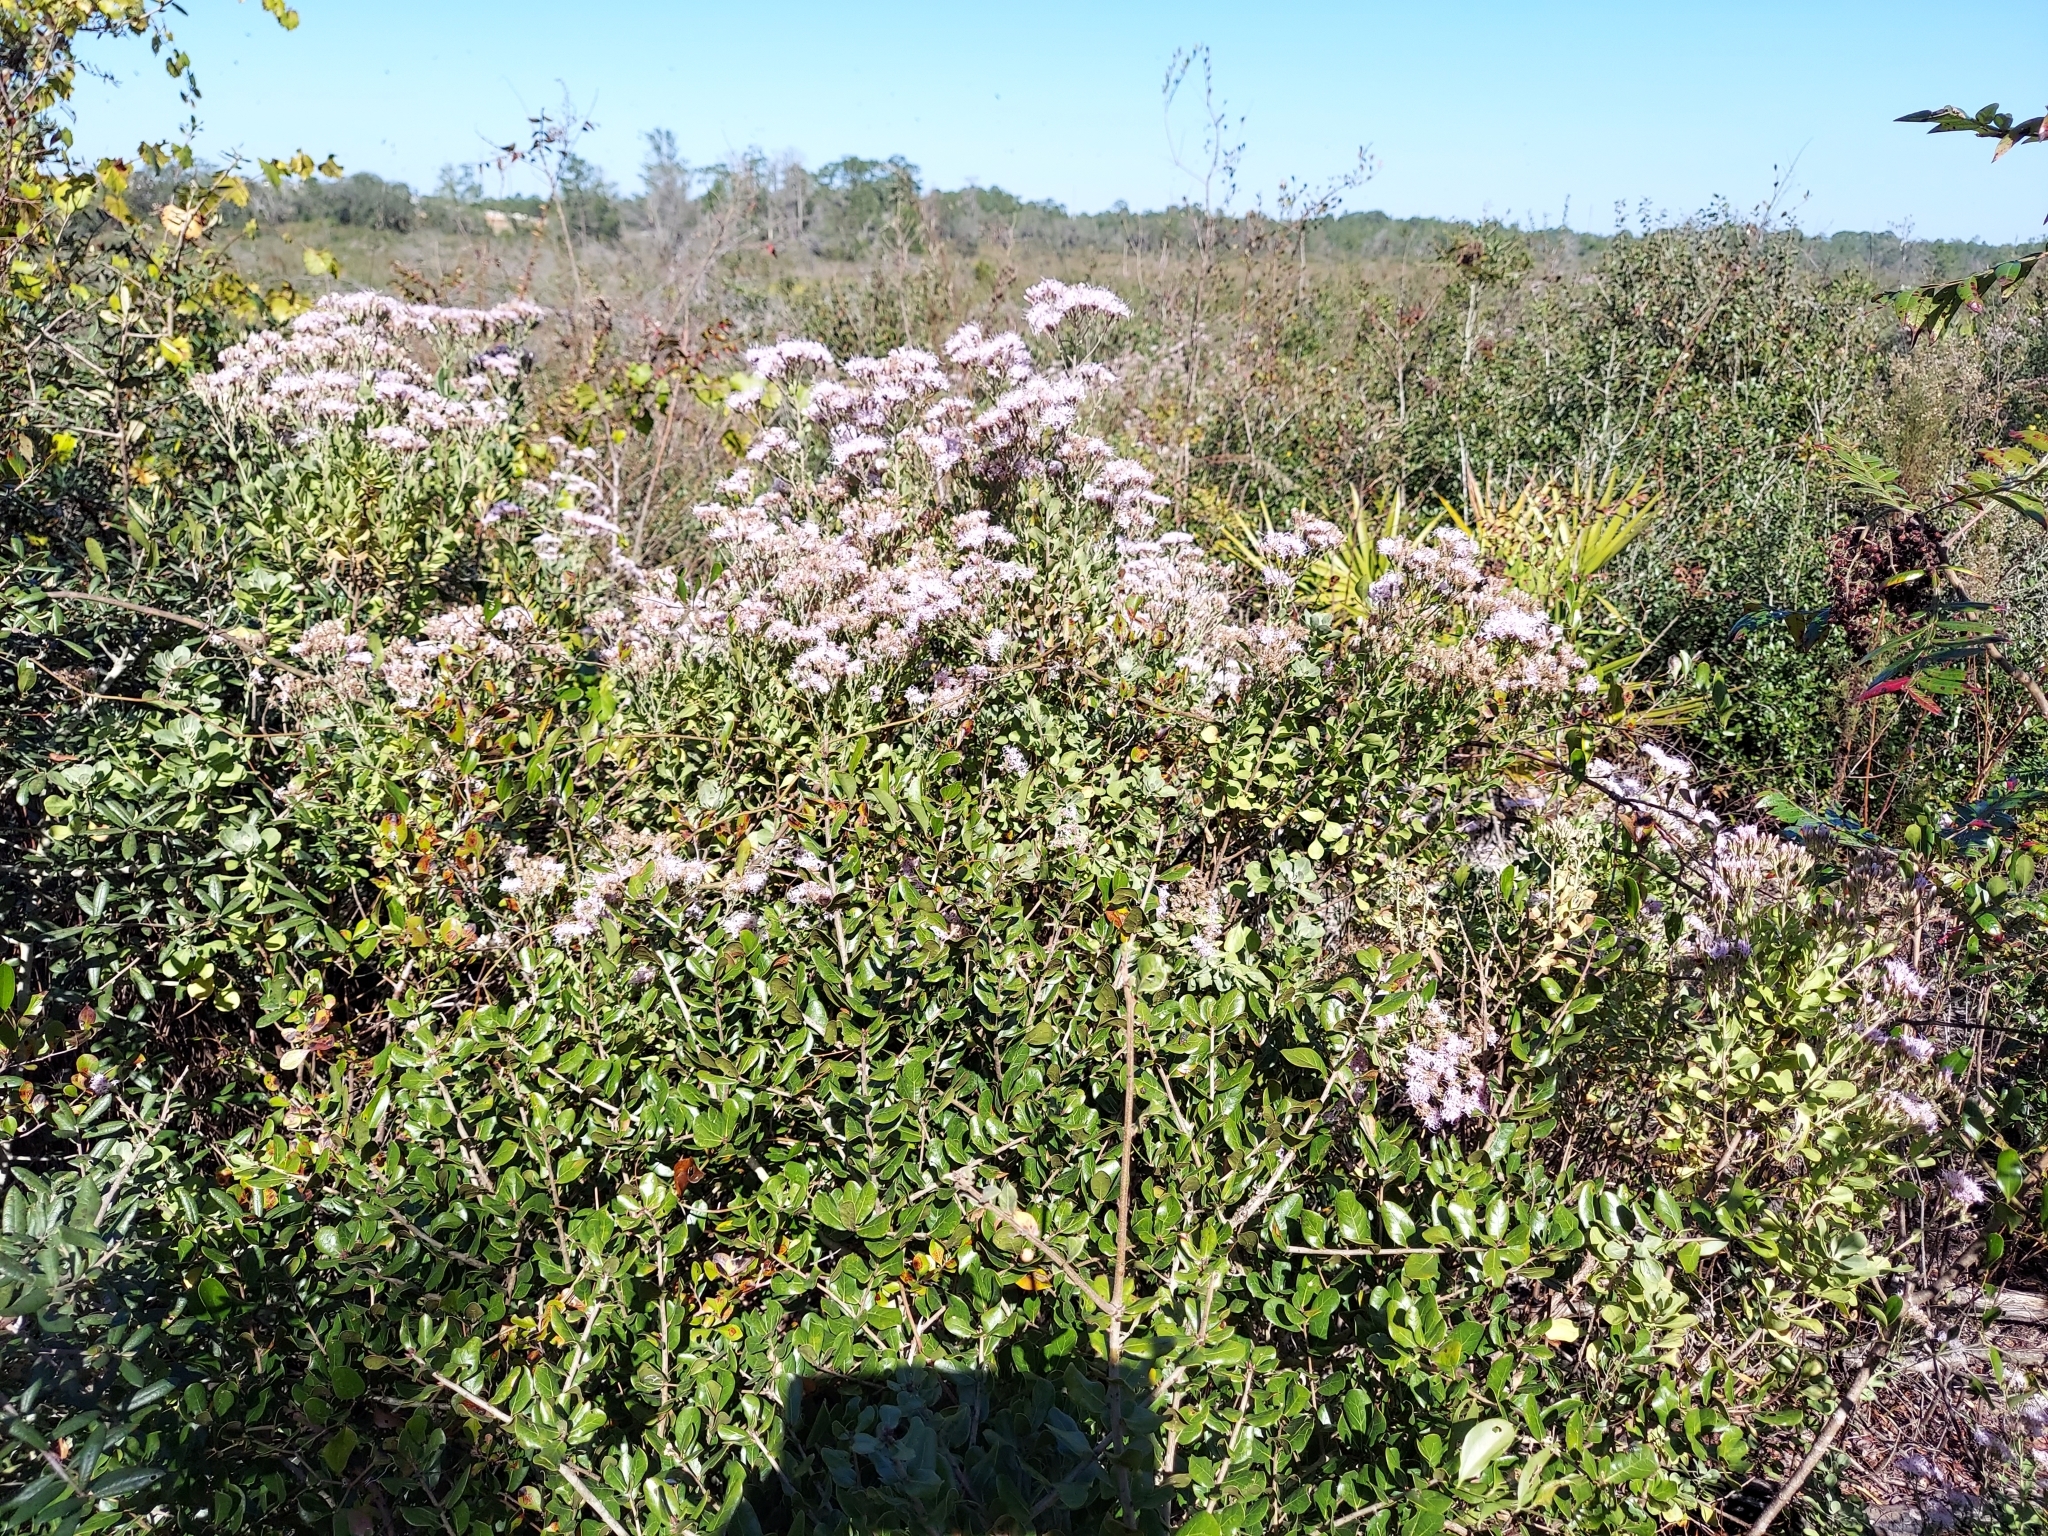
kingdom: Plantae
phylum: Tracheophyta
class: Magnoliopsida
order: Asterales
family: Asteraceae
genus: Garberia
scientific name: Garberia heterophylla
